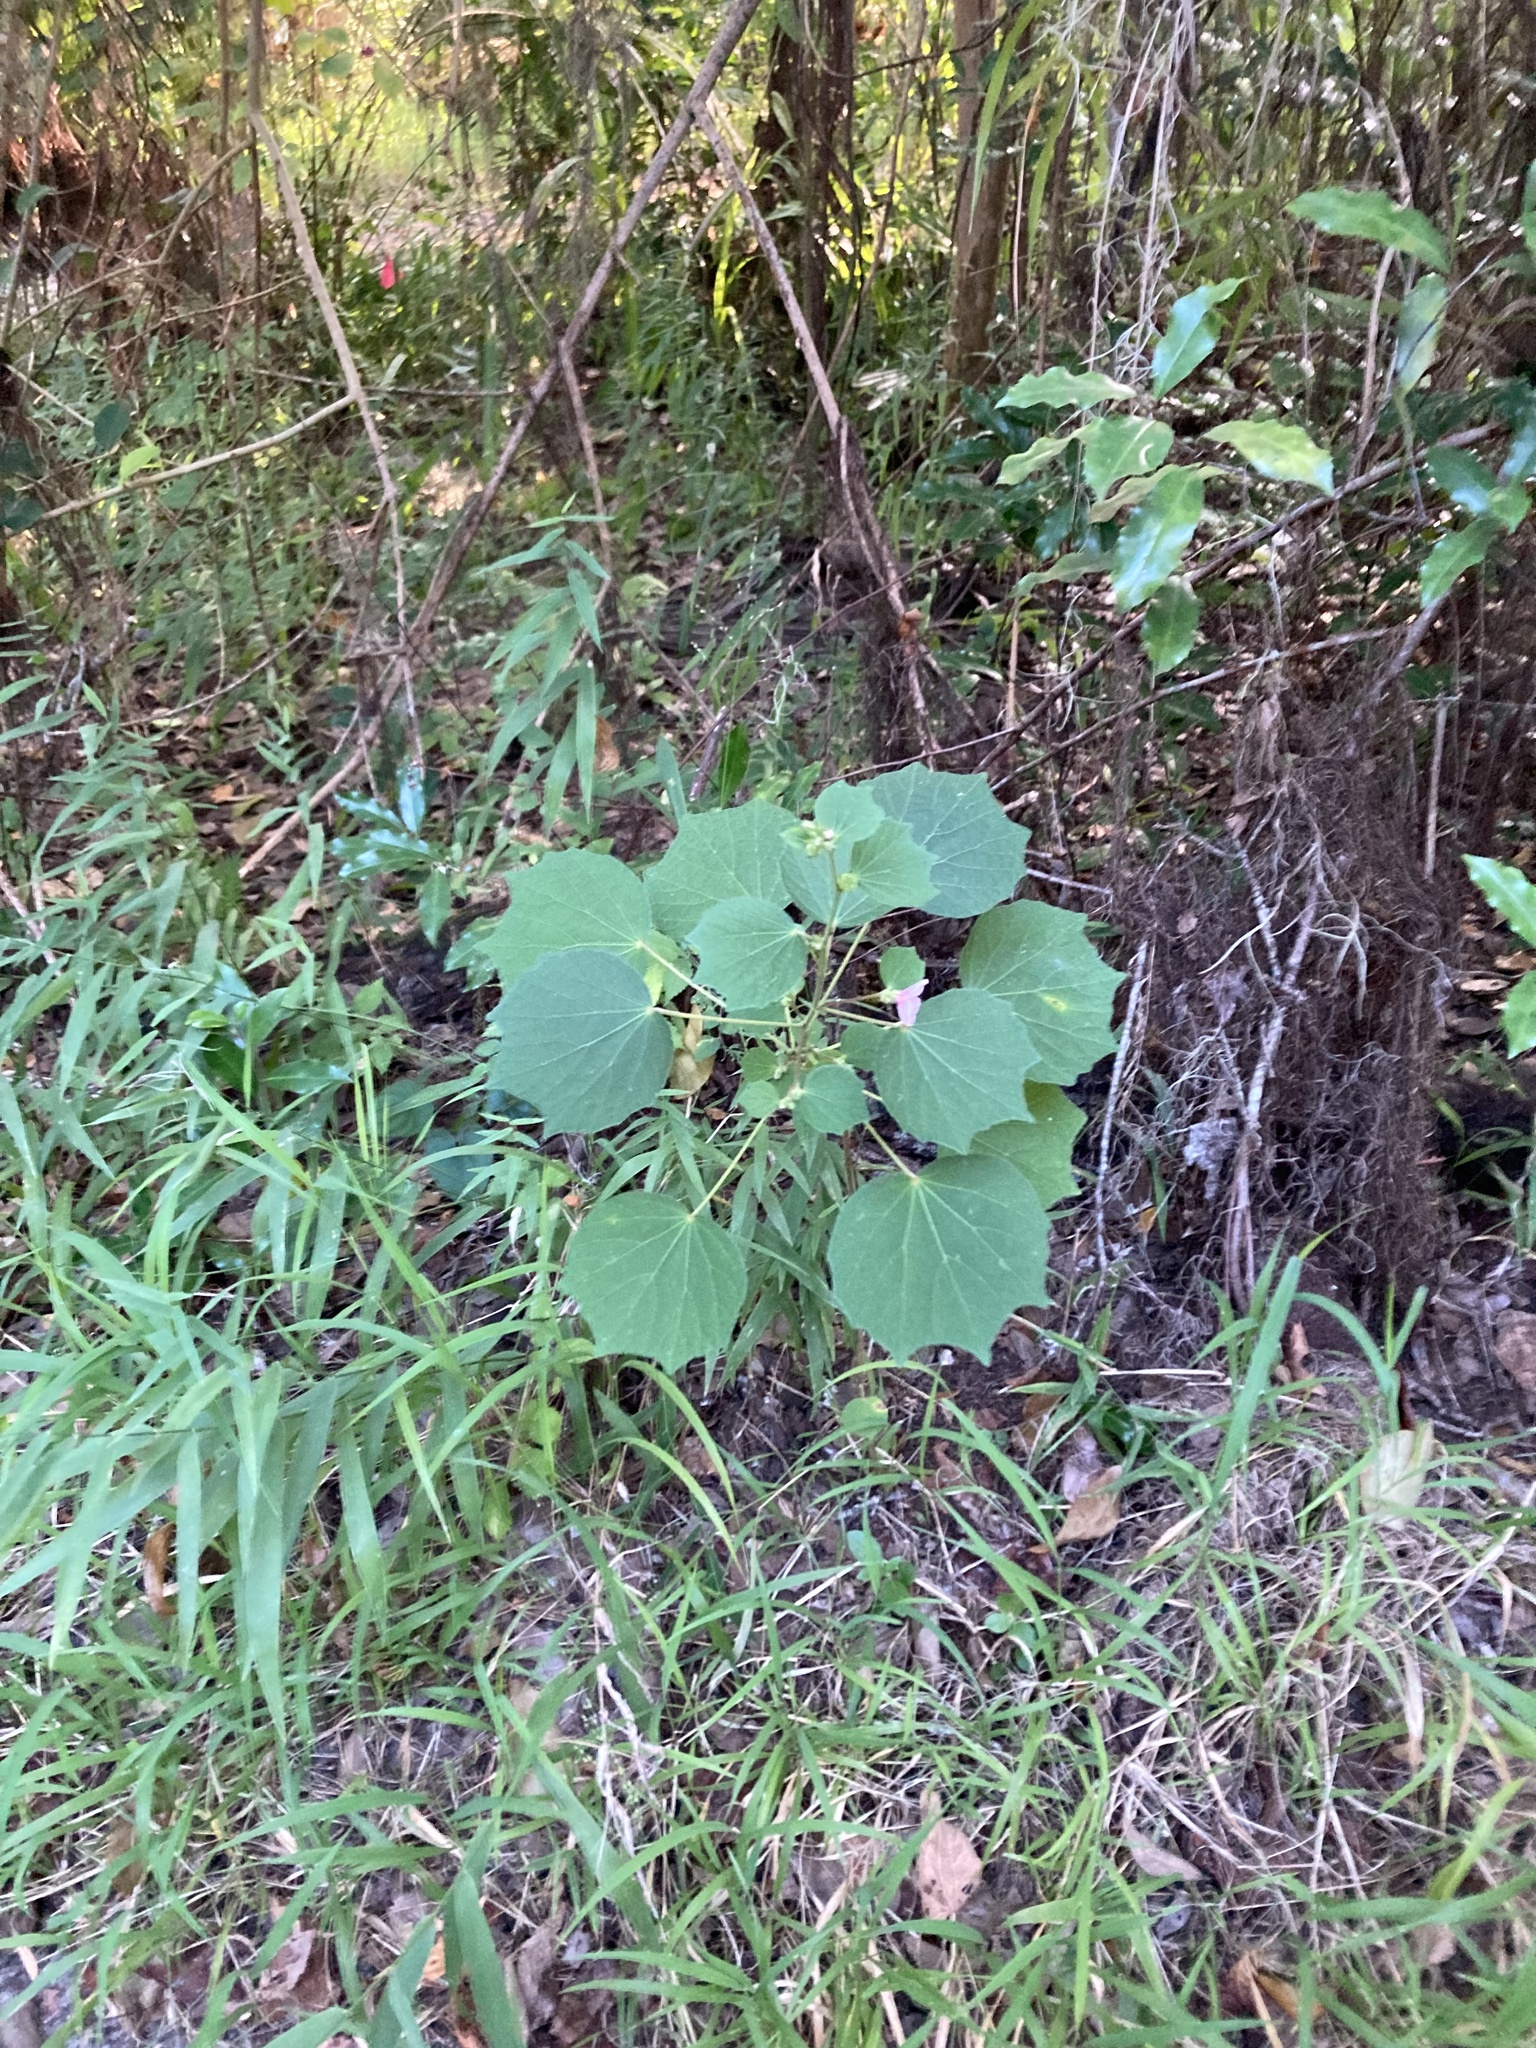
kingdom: Plantae
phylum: Tracheophyta
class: Magnoliopsida
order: Malvales
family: Malvaceae
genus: Urena
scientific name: Urena lobata
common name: Caesarweed
